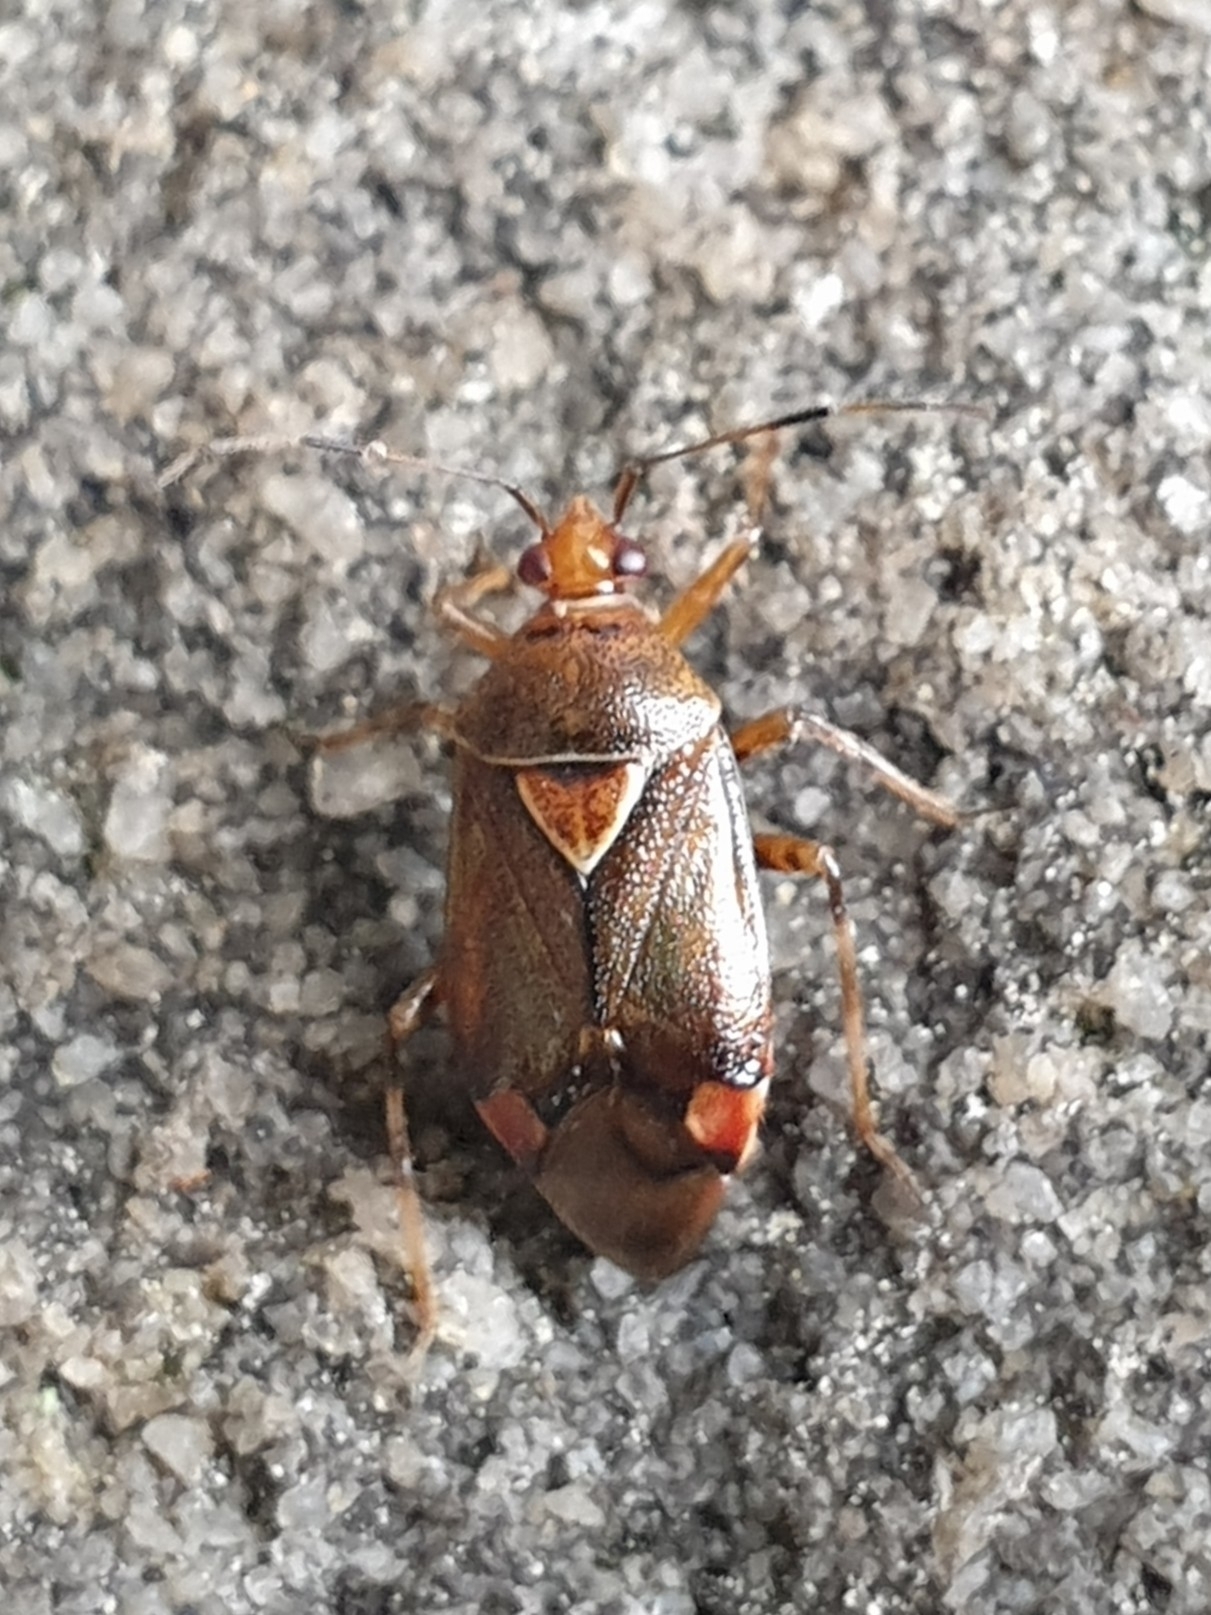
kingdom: Animalia
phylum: Arthropoda
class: Insecta
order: Hemiptera
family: Miridae
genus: Deraeocoris
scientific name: Deraeocoris flavilinea
